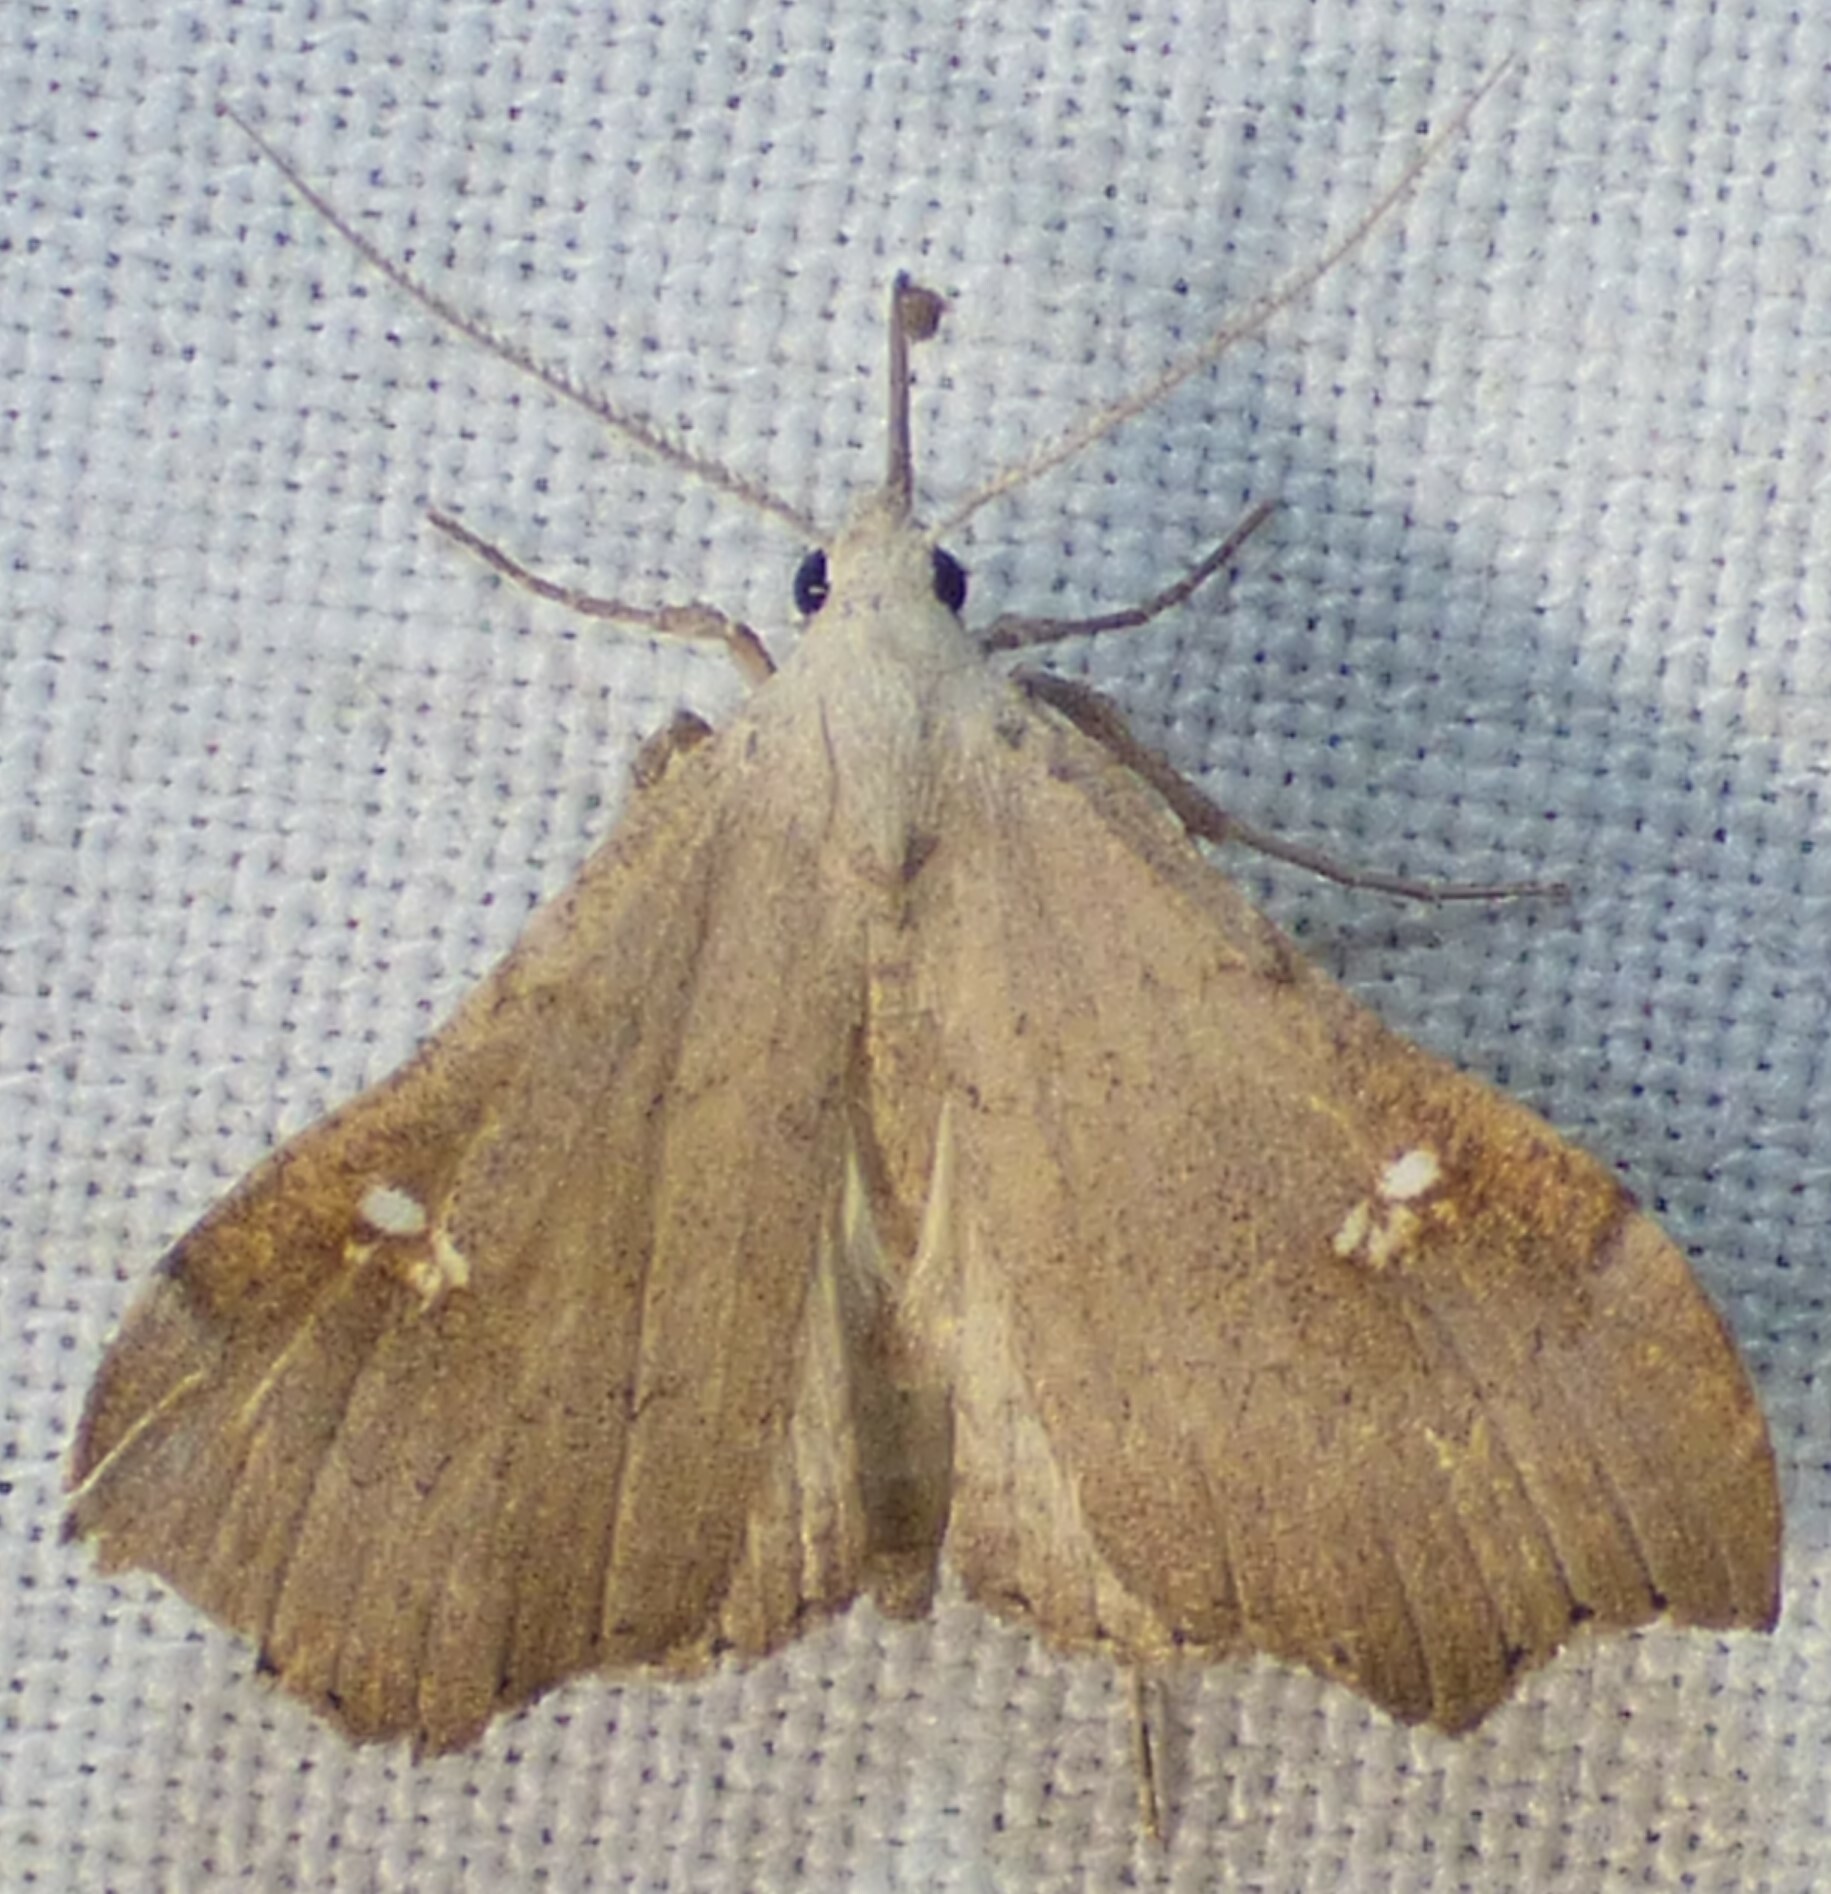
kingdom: Animalia
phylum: Arthropoda
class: Insecta
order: Lepidoptera
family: Erebidae
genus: Redectis
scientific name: Redectis vitrea
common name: White-spotted redectis
